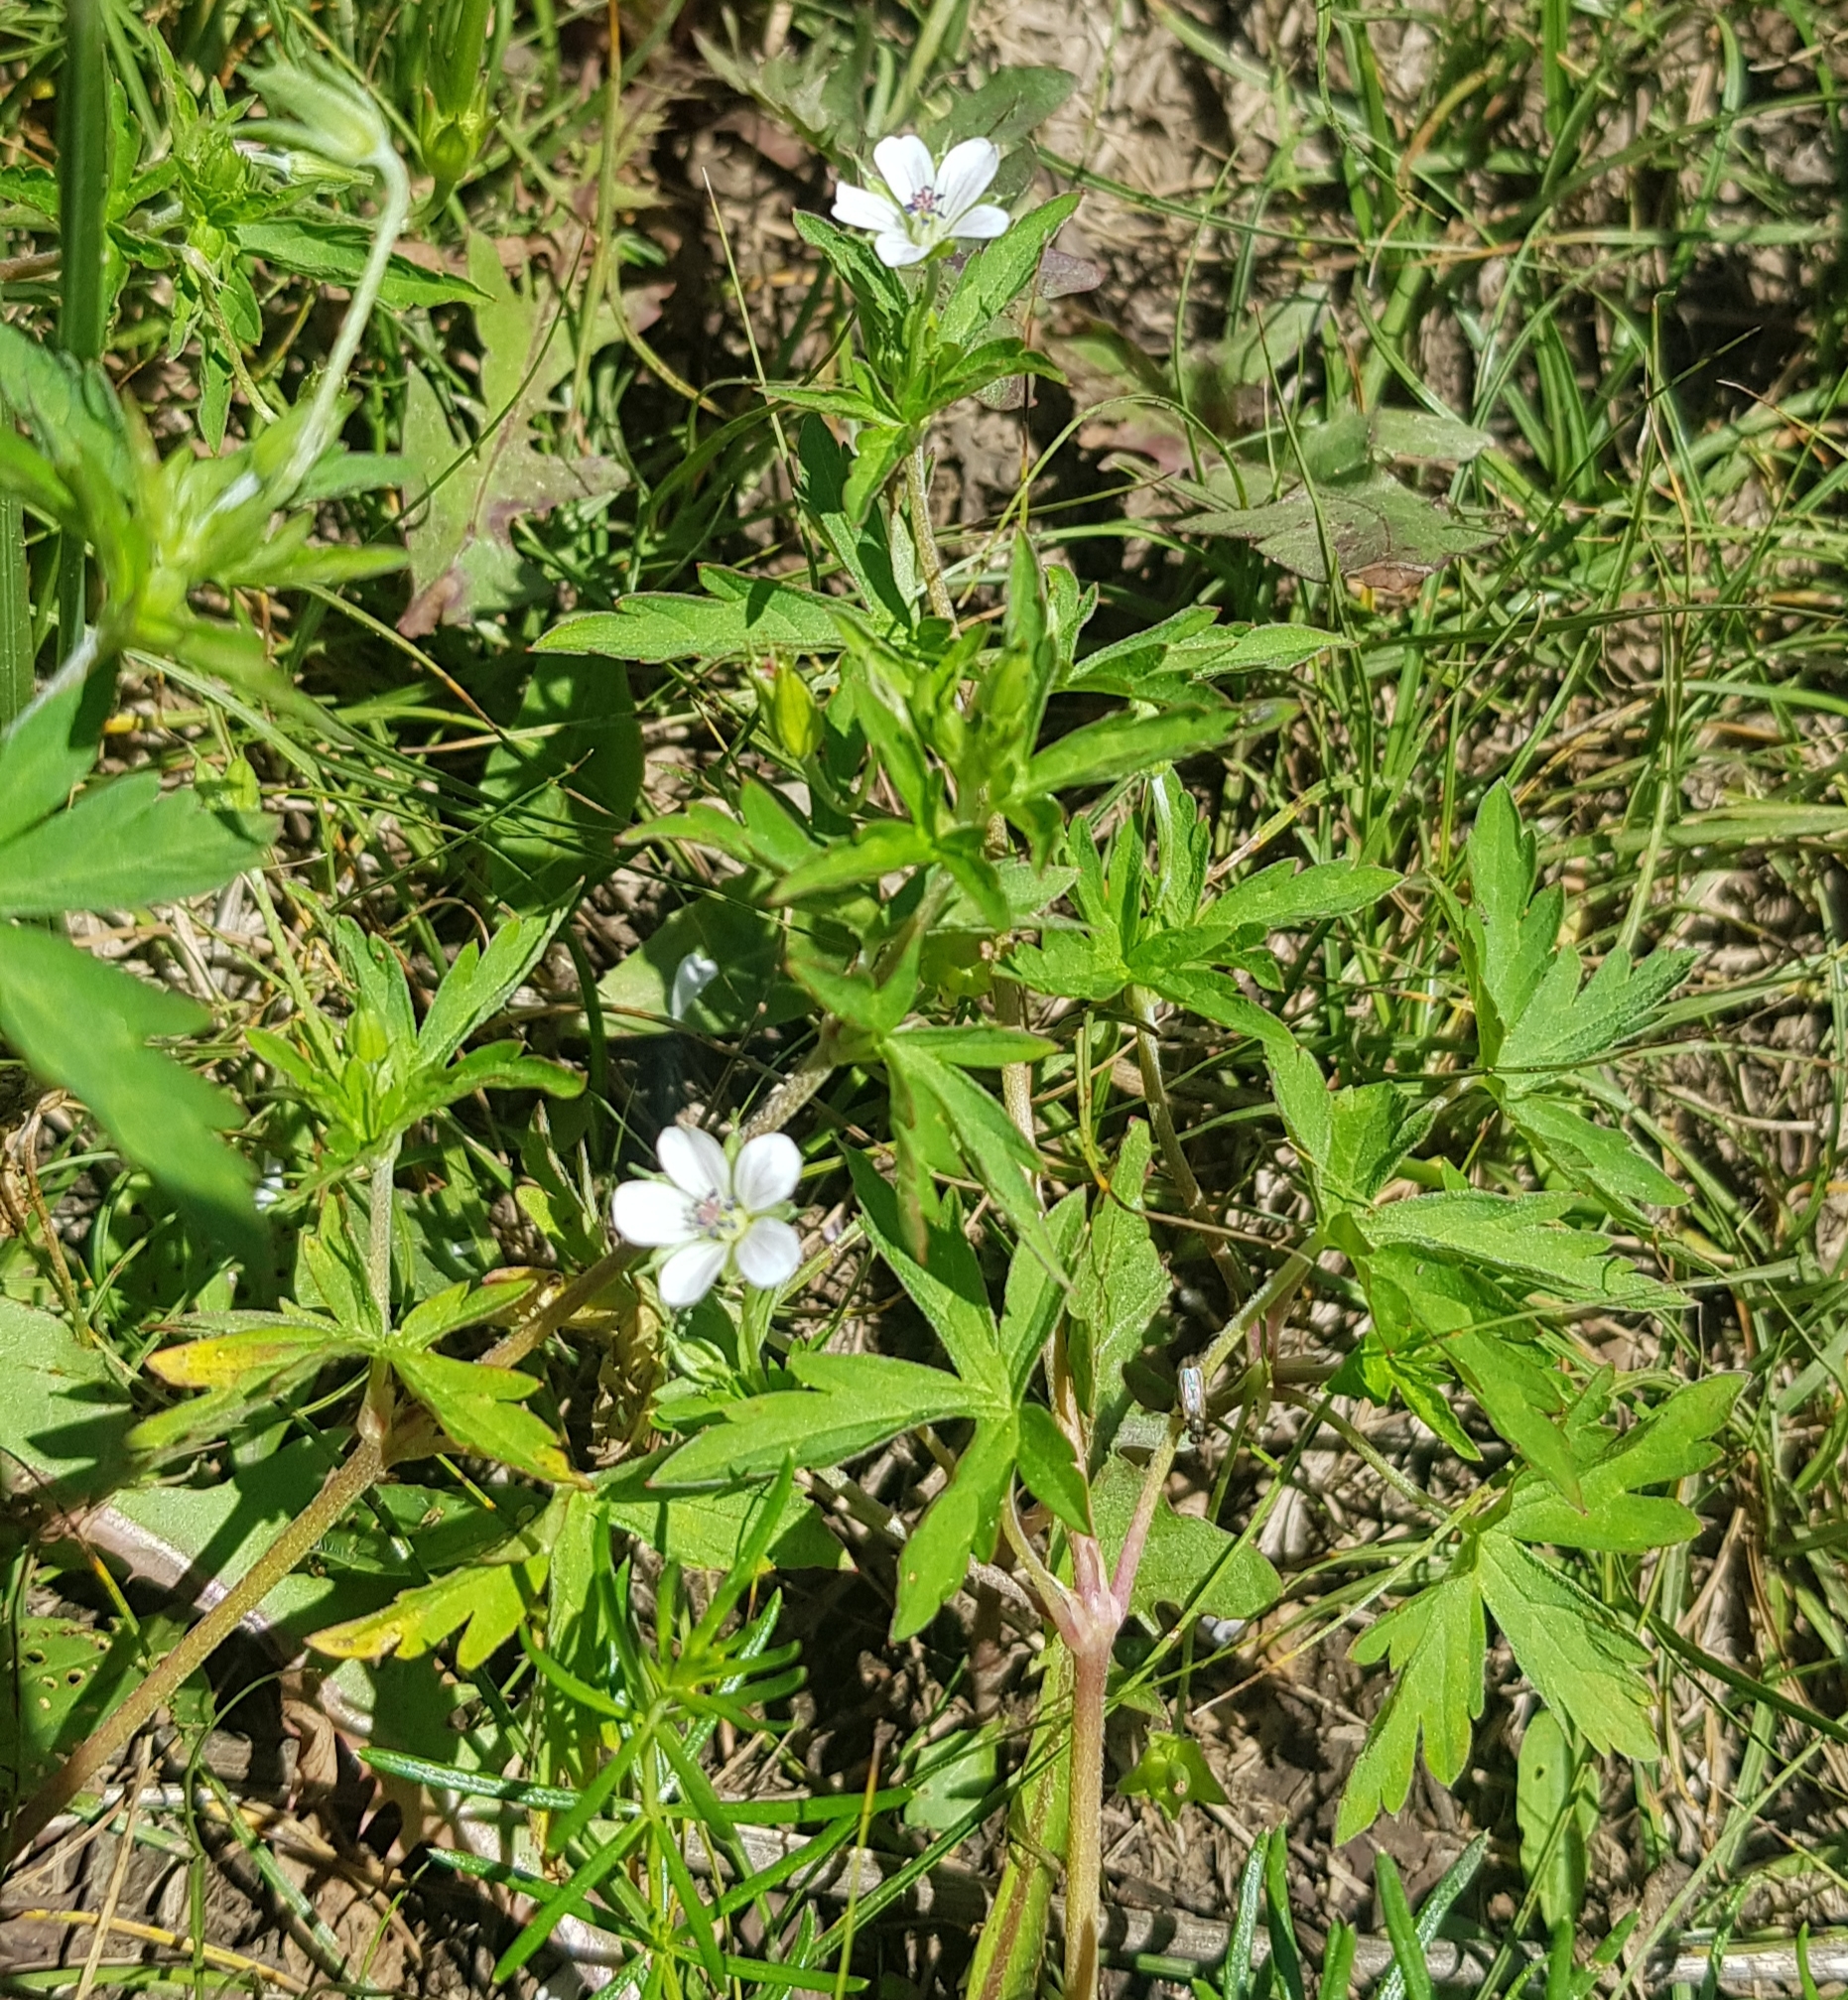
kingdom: Plantae
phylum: Tracheophyta
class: Magnoliopsida
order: Geraniales
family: Geraniaceae
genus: Geranium
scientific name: Geranium sibiricum
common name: Siberian crane's-bill
